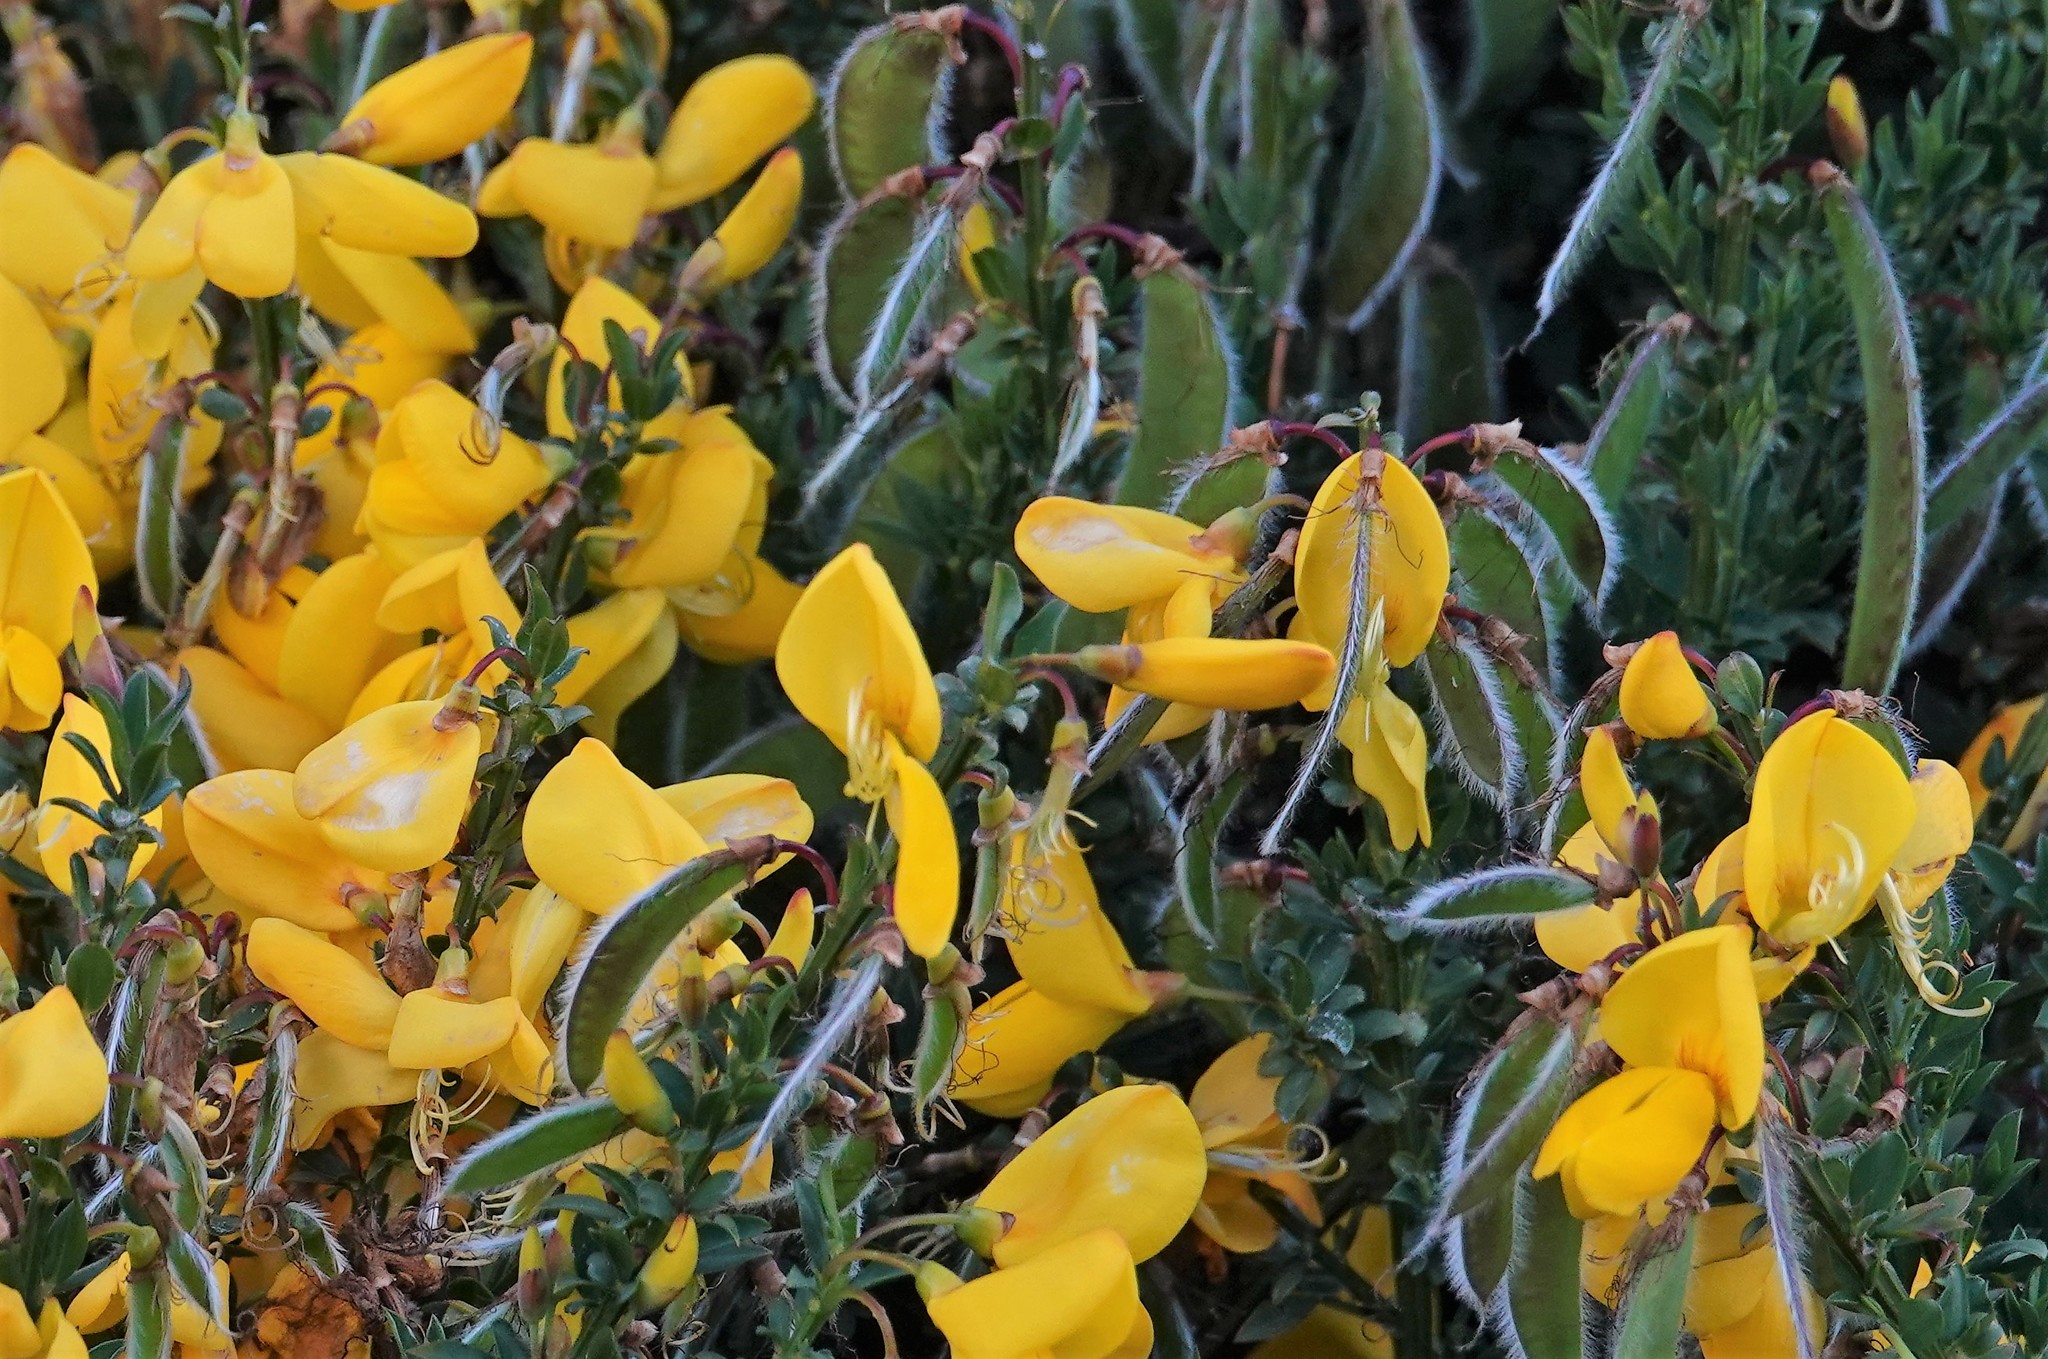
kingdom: Plantae
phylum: Tracheophyta
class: Magnoliopsida
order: Fabales
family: Fabaceae
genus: Cytisus
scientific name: Cytisus scoparius
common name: Scotch broom
